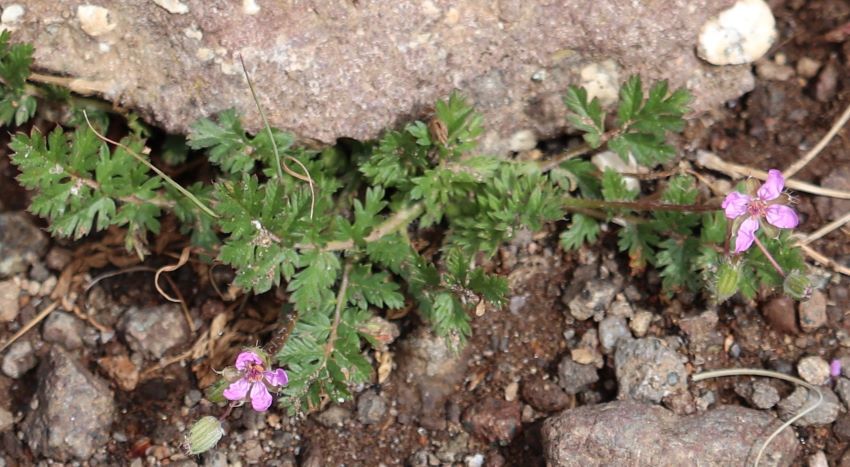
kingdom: Plantae
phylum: Tracheophyta
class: Magnoliopsida
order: Geraniales
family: Geraniaceae
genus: Erodium
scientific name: Erodium cicutarium
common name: Common stork's-bill
